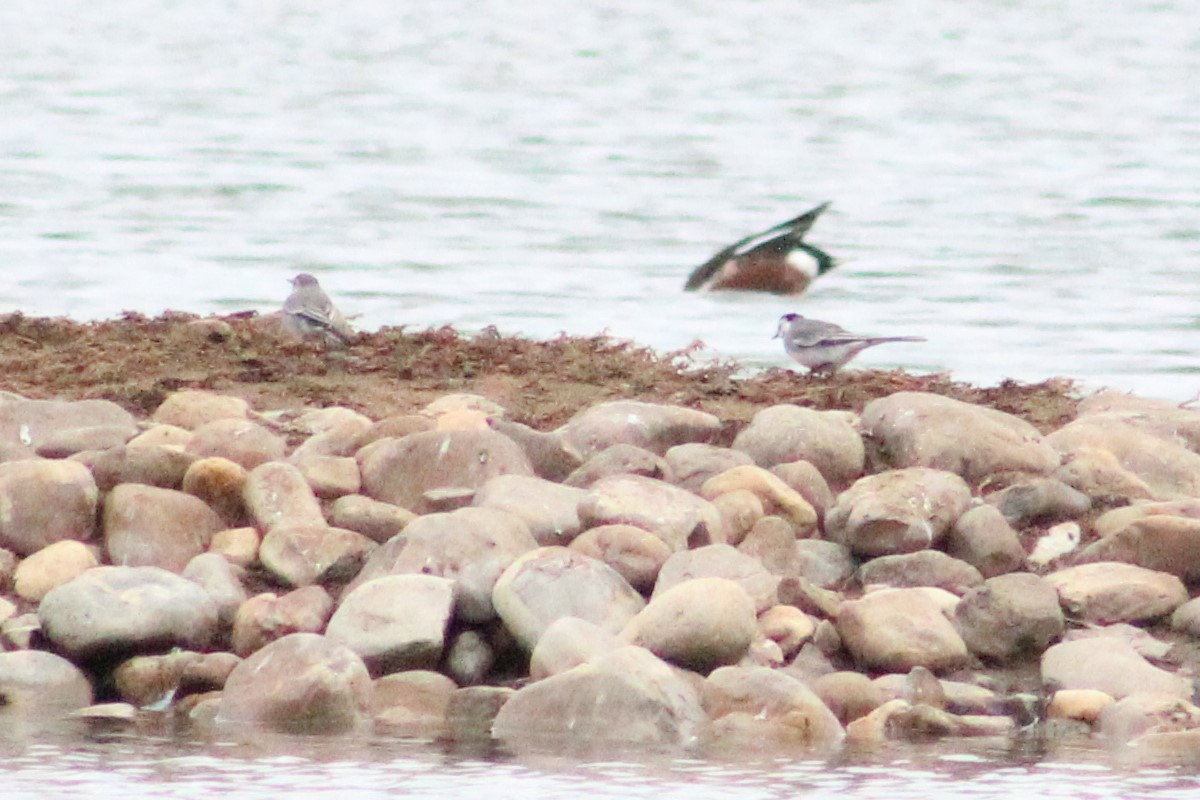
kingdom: Animalia
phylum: Chordata
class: Aves
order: Passeriformes
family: Motacillidae
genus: Motacilla
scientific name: Motacilla alba
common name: White wagtail
